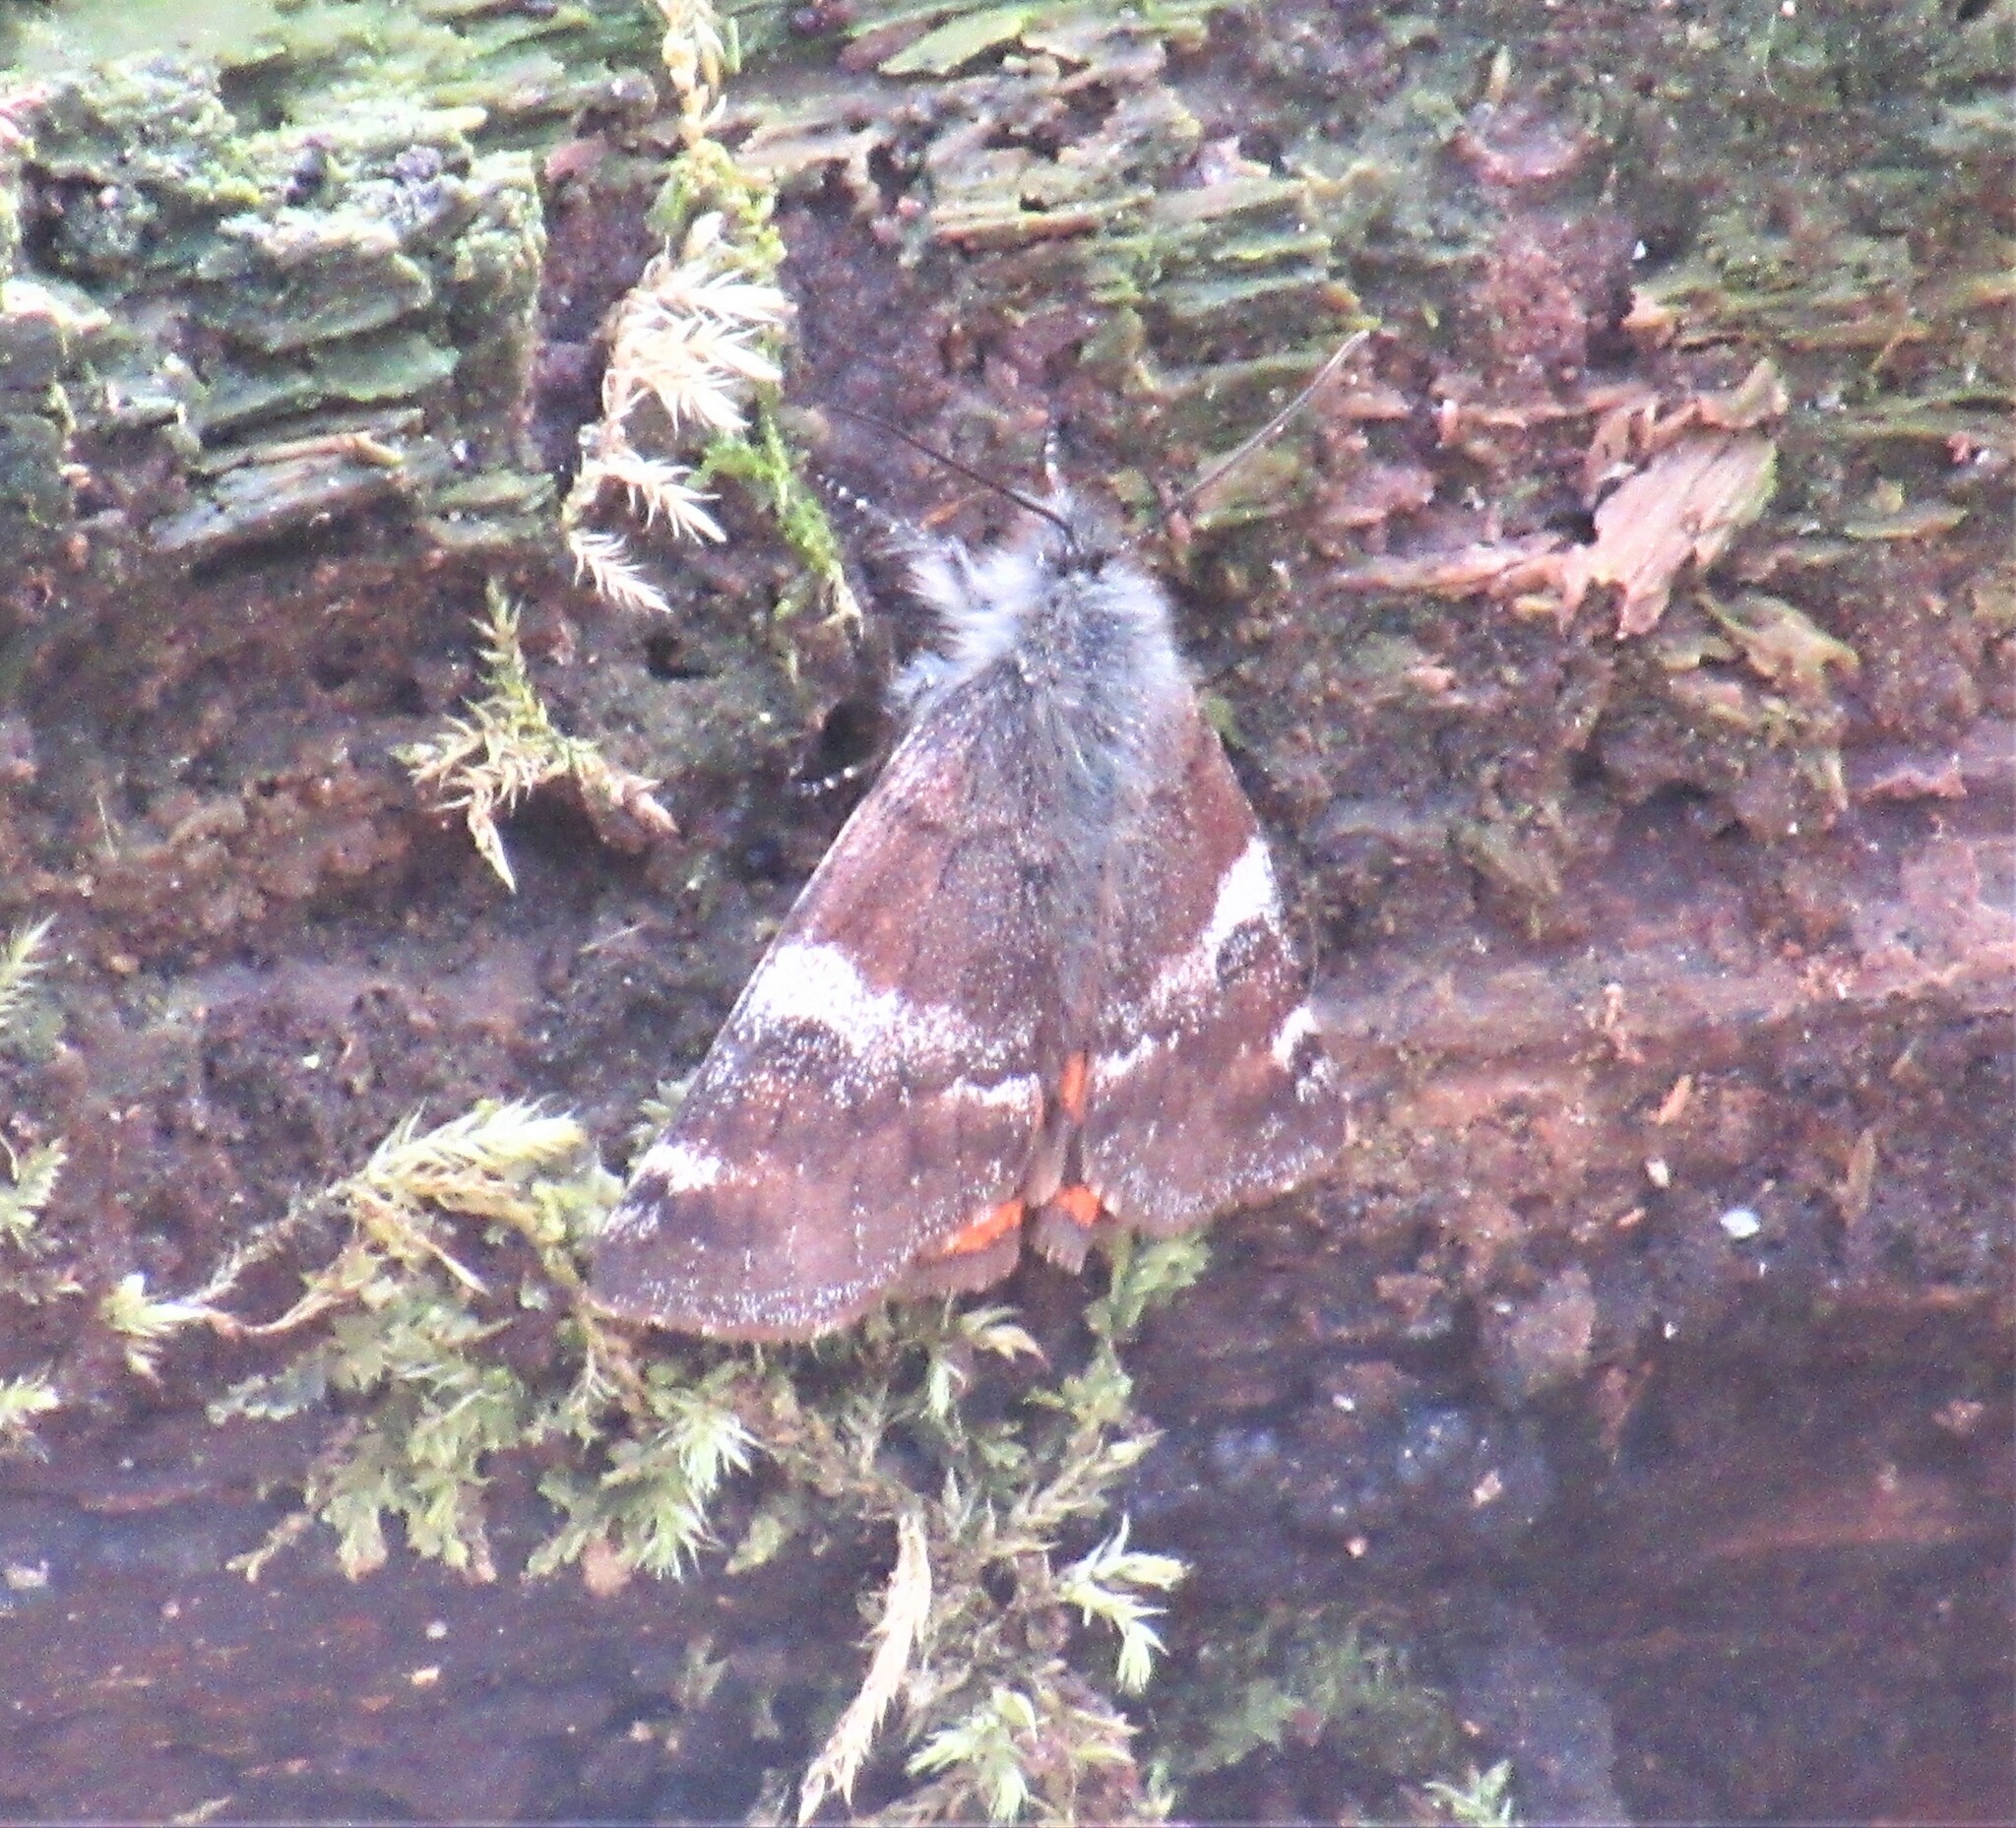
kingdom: Animalia
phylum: Arthropoda
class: Insecta
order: Lepidoptera
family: Geometridae
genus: Archiearis
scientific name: Archiearis infans
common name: First born geometer
